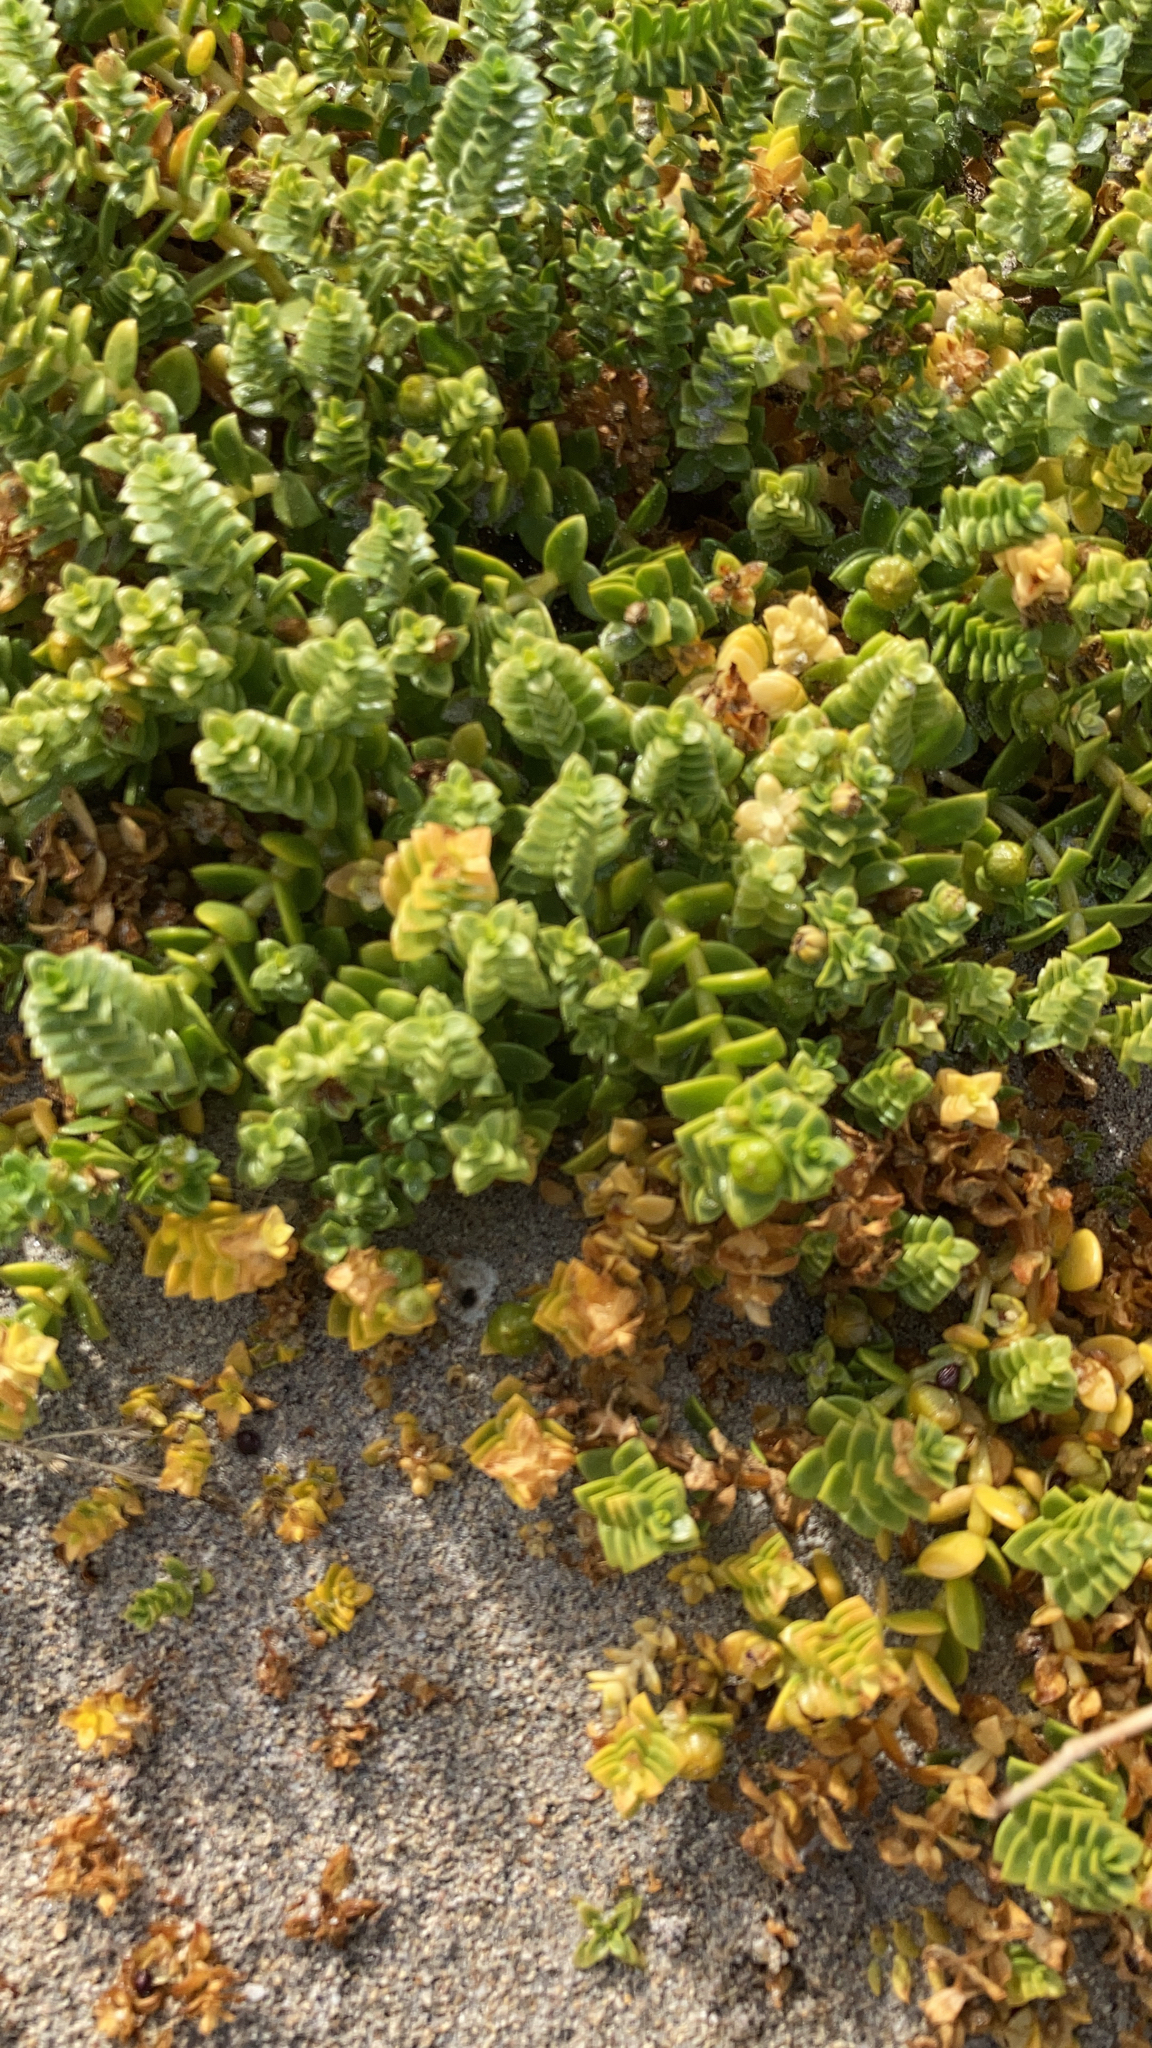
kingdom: Plantae
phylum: Tracheophyta
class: Magnoliopsida
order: Caryophyllales
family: Caryophyllaceae
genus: Honckenya
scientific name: Honckenya peploides
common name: Sea sandwort
